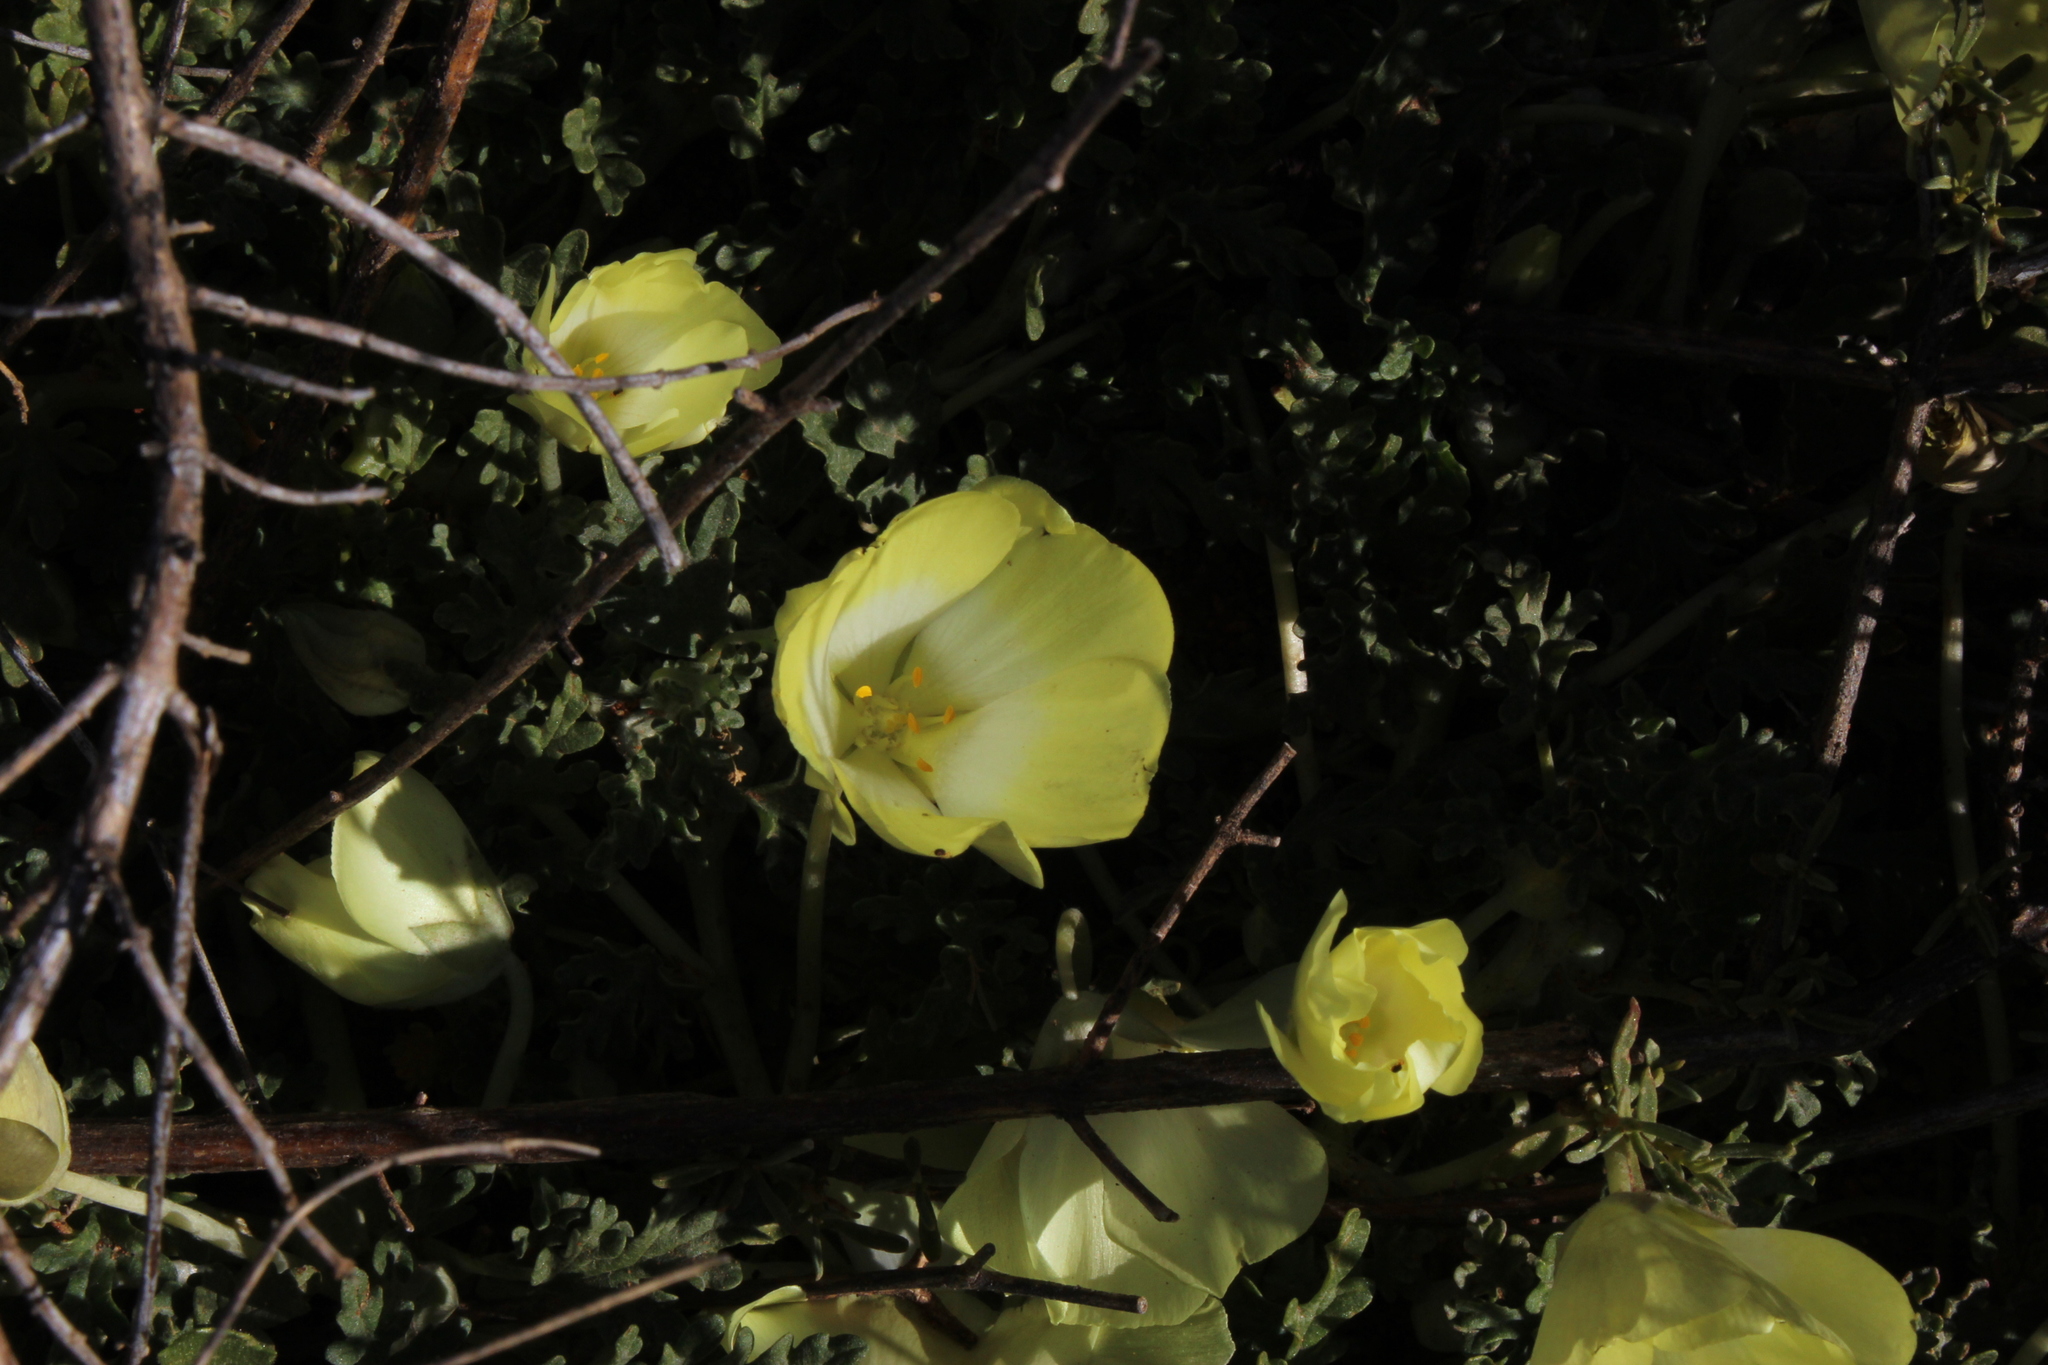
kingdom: Plantae
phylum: Tracheophyta
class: Magnoliopsida
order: Malvales
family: Neuradaceae
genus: Grielum
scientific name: Grielum humifusum
